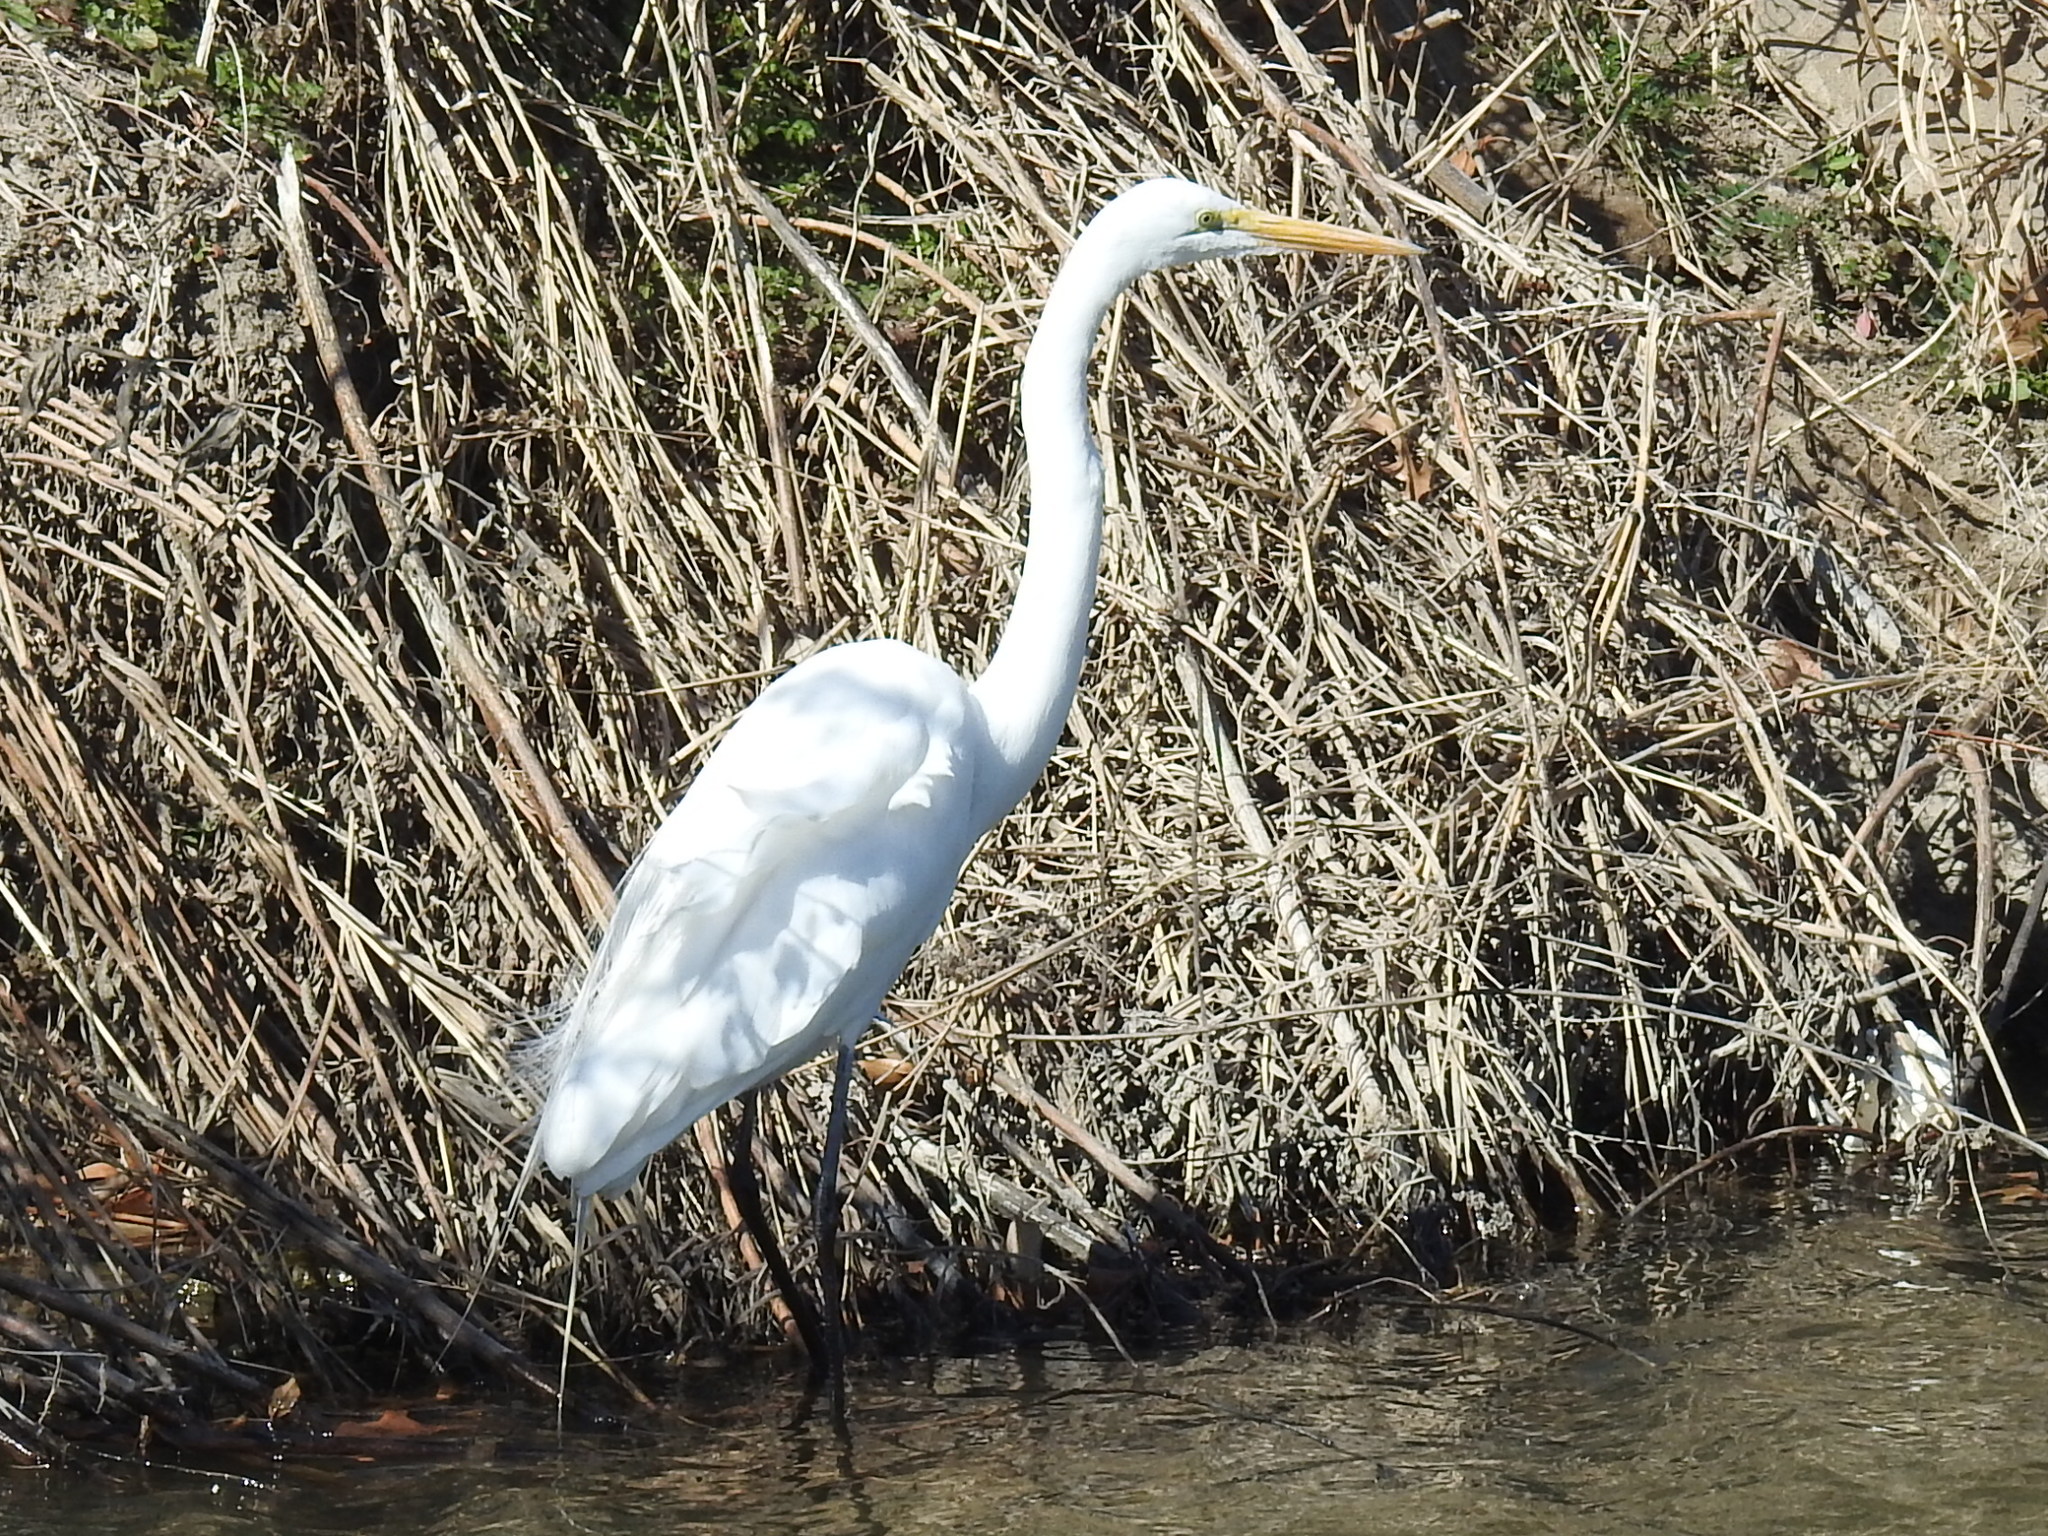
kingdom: Animalia
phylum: Chordata
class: Aves
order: Pelecaniformes
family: Ardeidae
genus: Ardea
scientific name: Ardea alba
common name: Great egret
